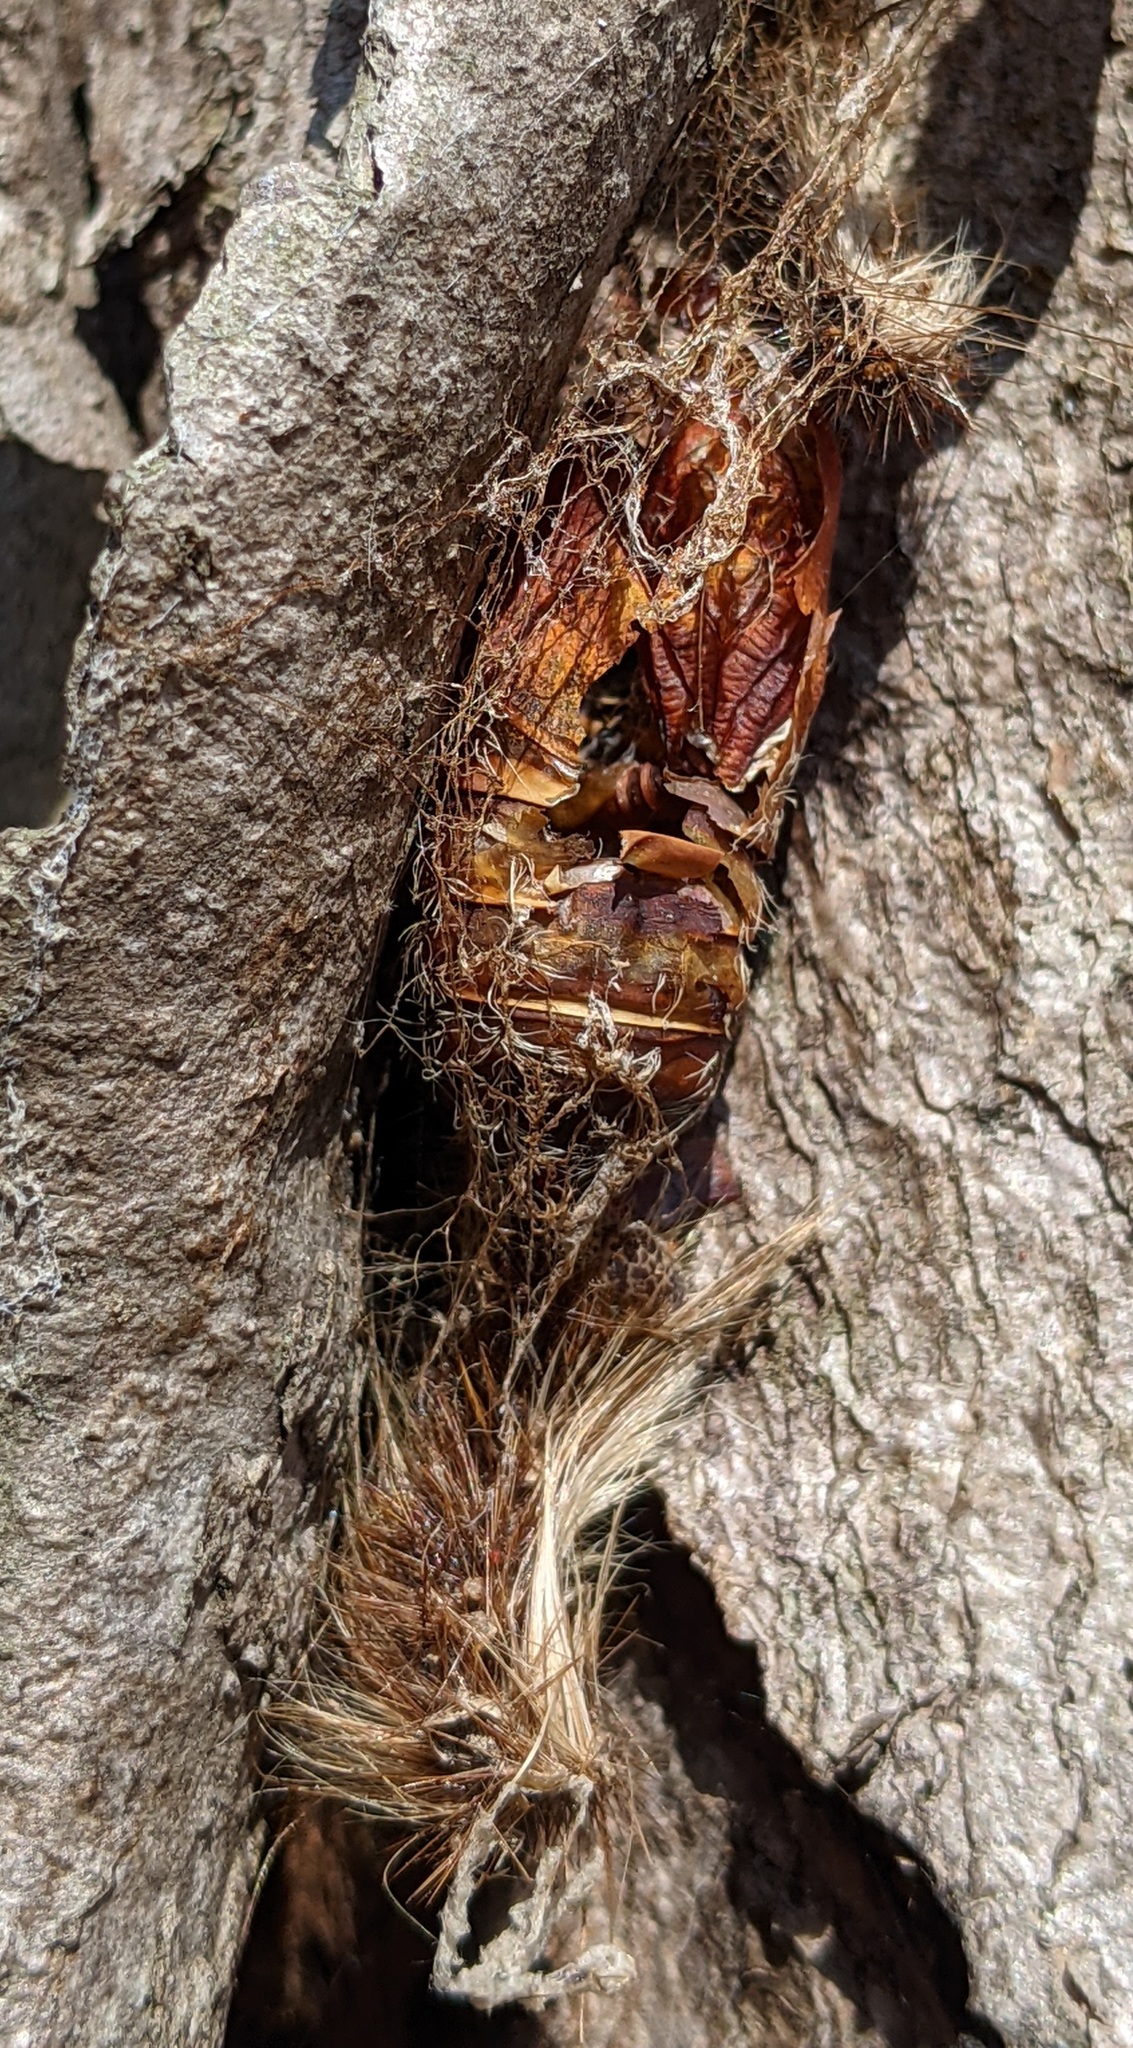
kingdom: Animalia
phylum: Arthropoda
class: Insecta
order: Lepidoptera
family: Erebidae
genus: Lymantria
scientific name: Lymantria dispar
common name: Gypsy moth
